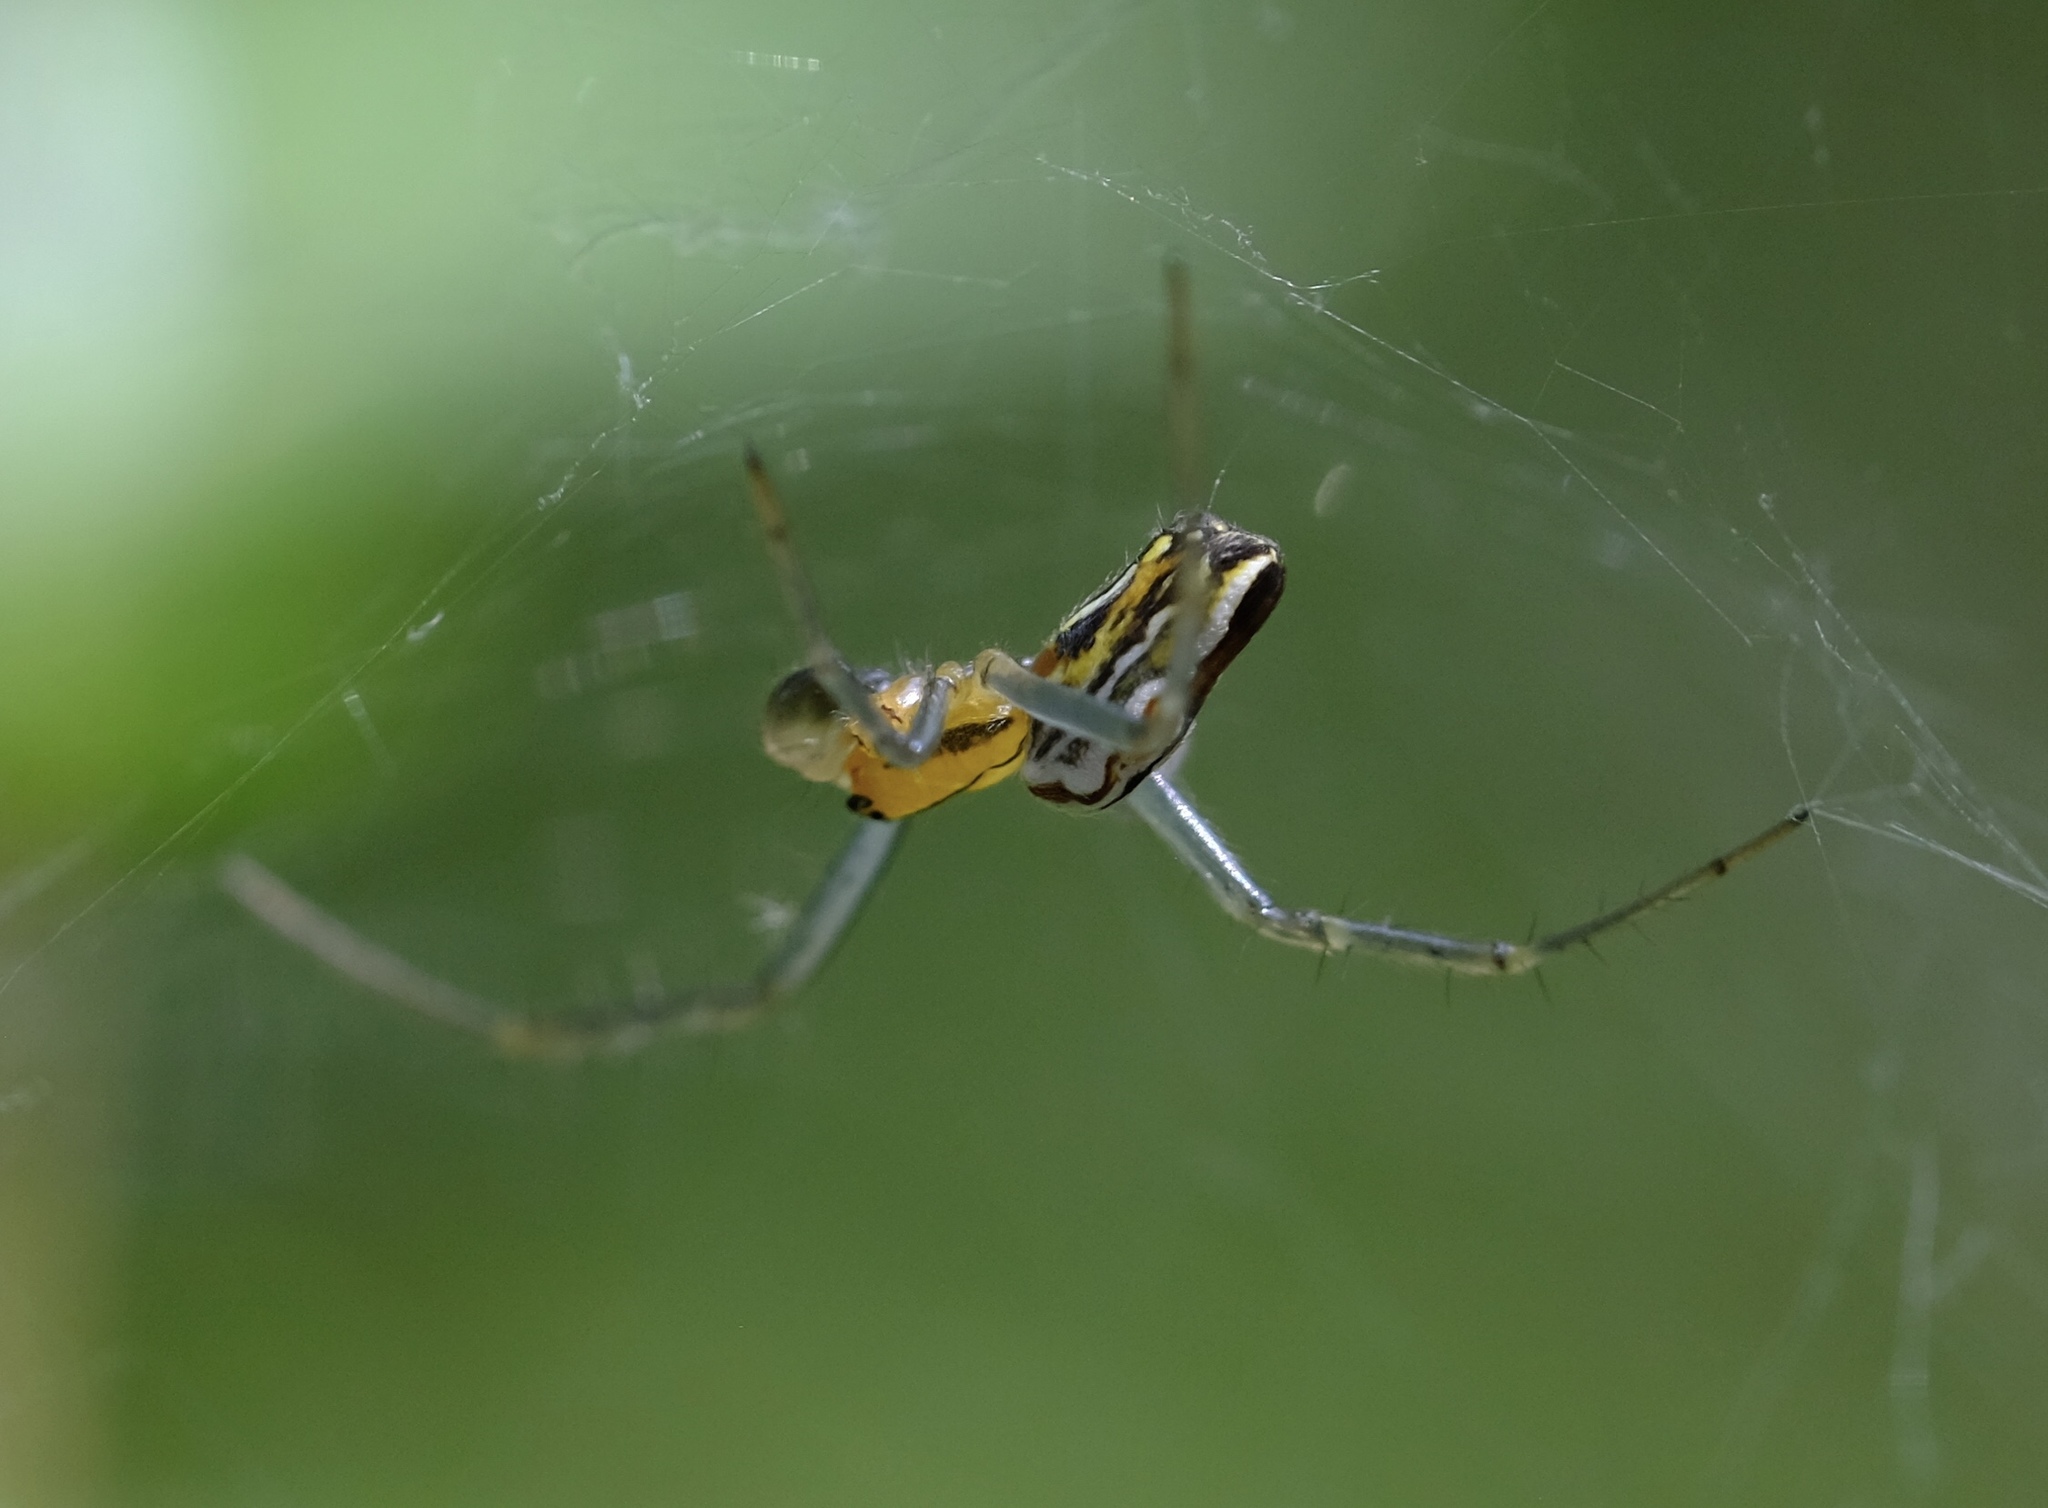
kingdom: Animalia
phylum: Arthropoda
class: Arachnida
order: Araneae
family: Araneidae
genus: Mecynogea
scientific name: Mecynogea lemniscata
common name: Orb weavers
